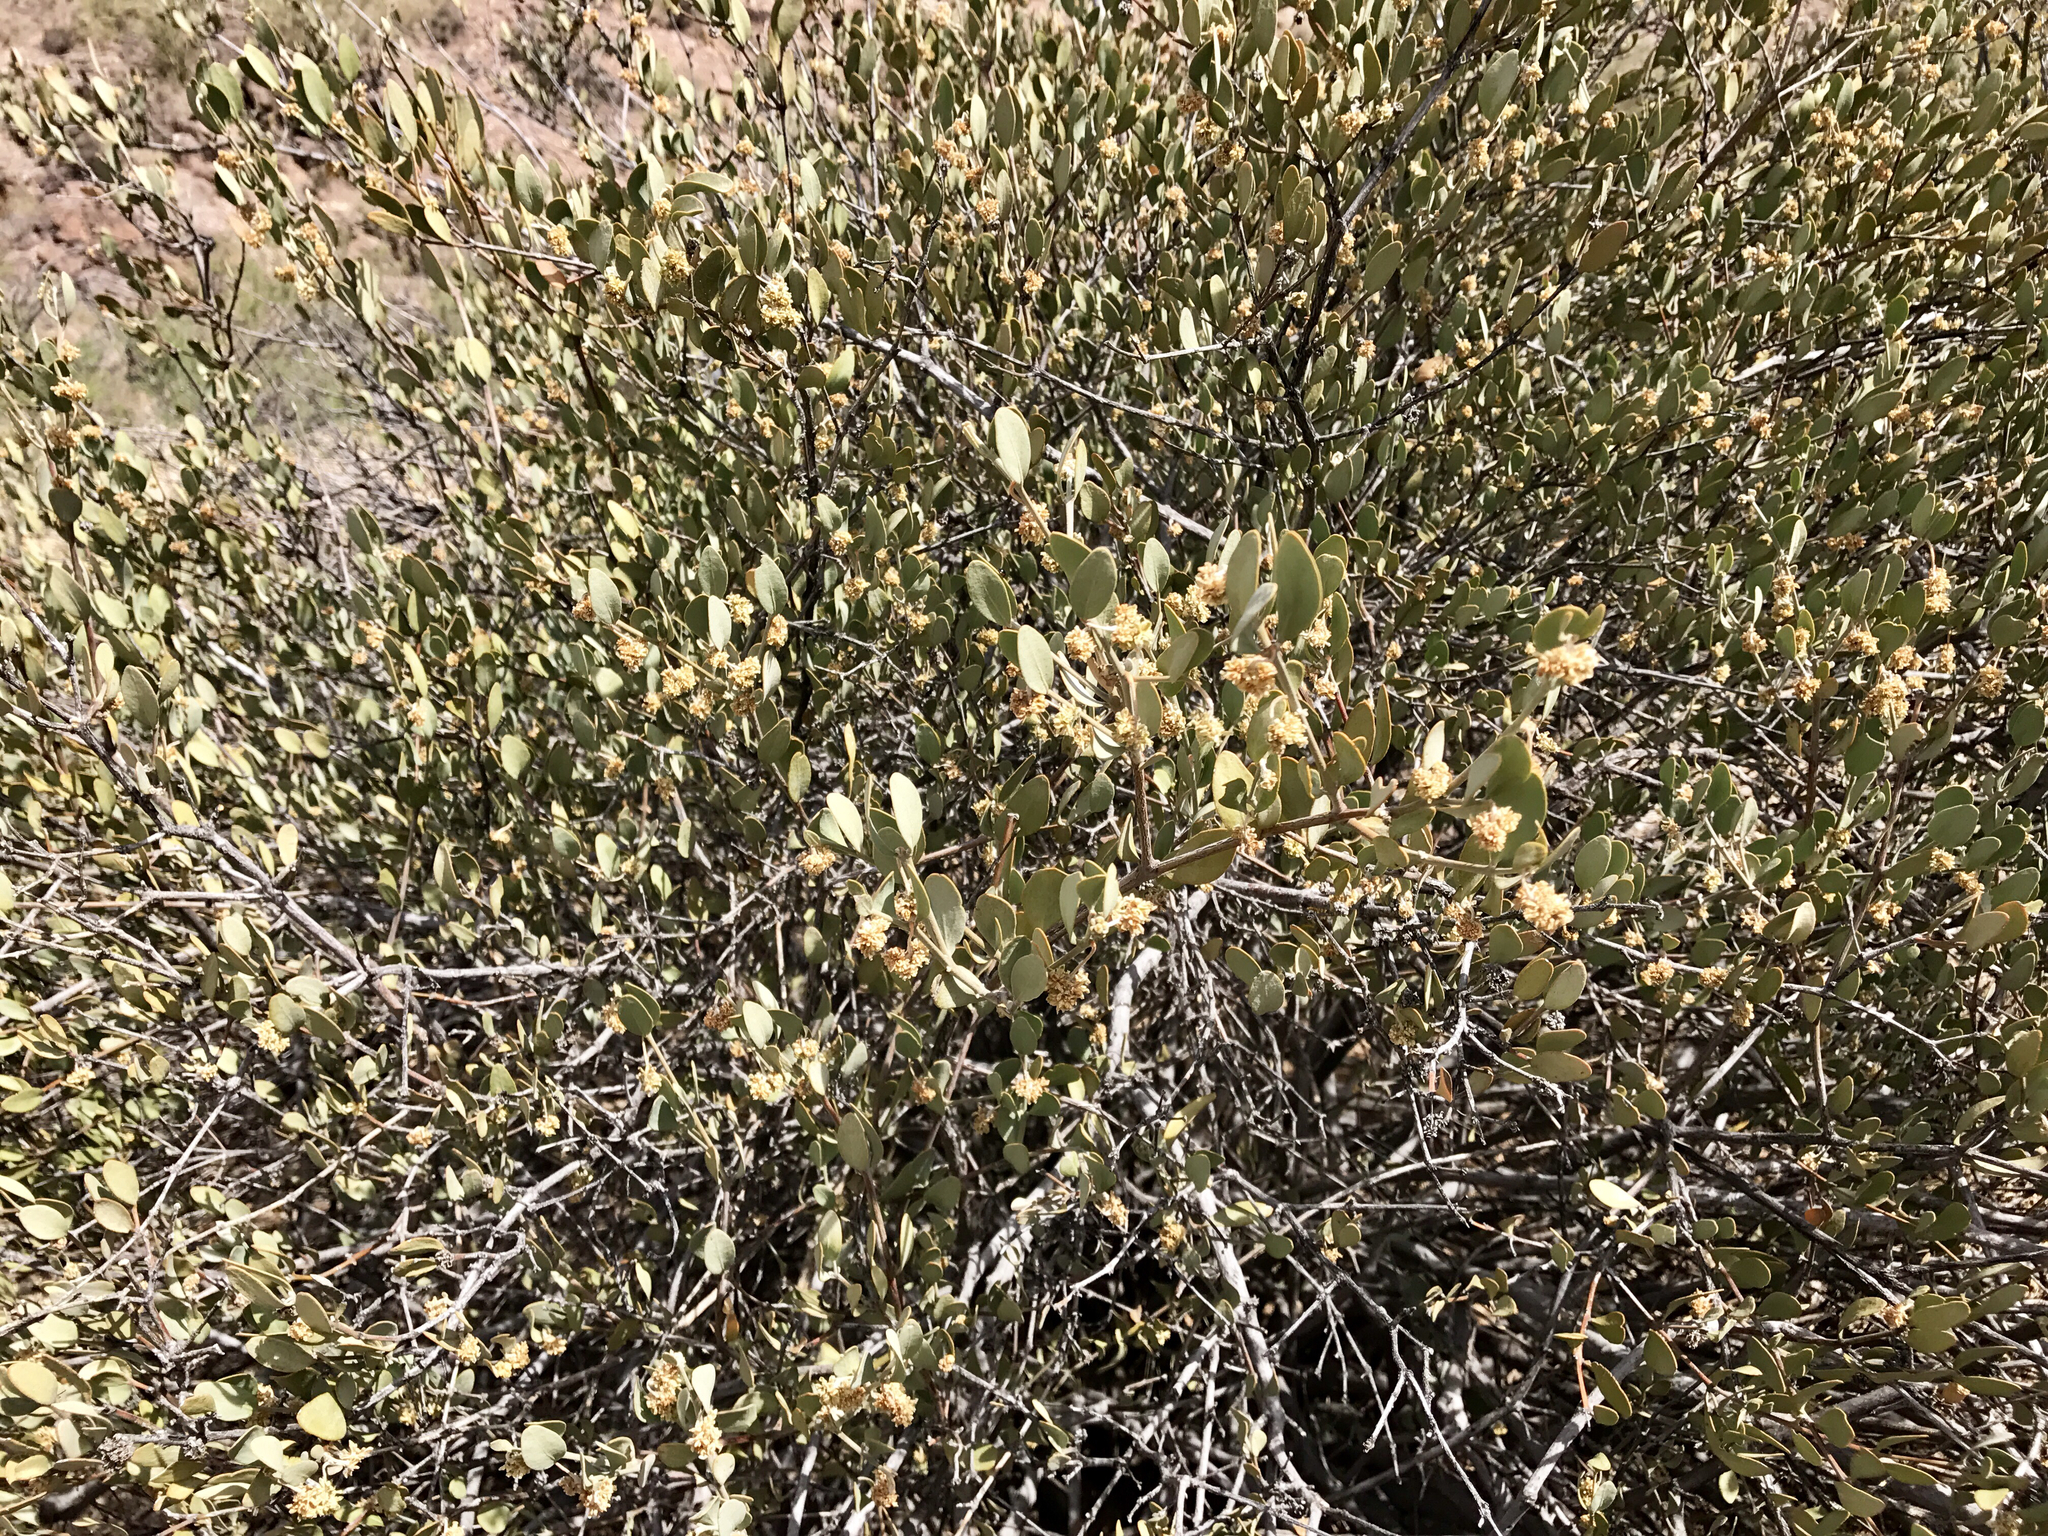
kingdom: Plantae
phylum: Tracheophyta
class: Magnoliopsida
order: Caryophyllales
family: Simmondsiaceae
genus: Simmondsia
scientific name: Simmondsia chinensis
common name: Jojoba
